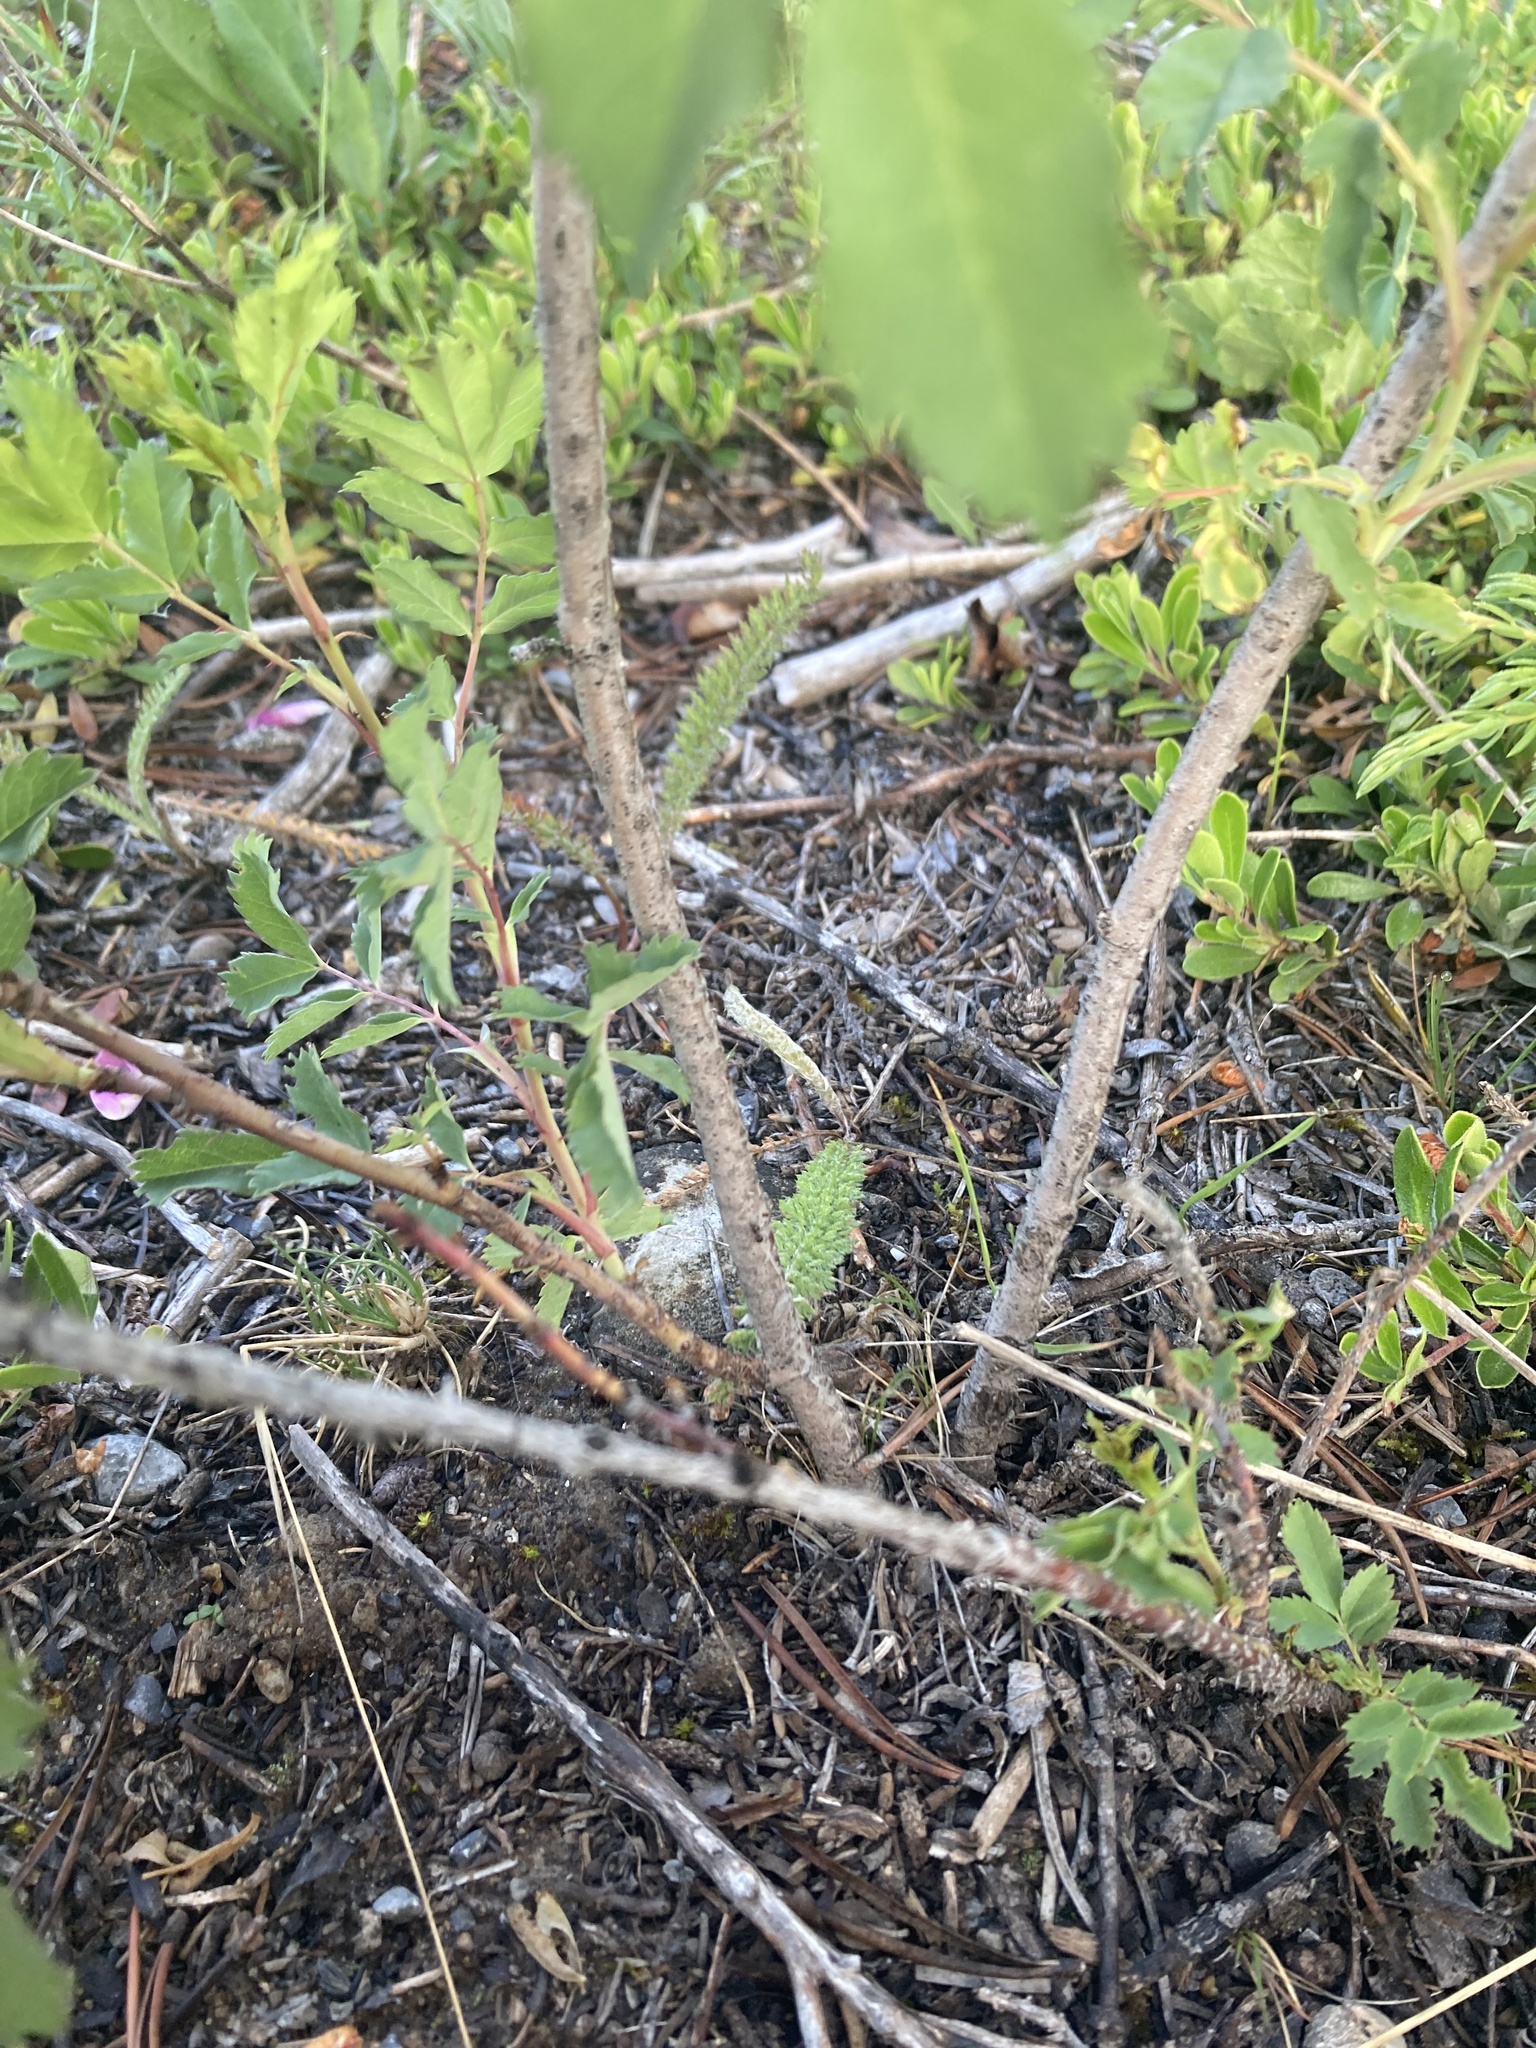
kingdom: Plantae
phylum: Tracheophyta
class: Magnoliopsida
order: Rosales
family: Rosaceae
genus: Rosa
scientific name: Rosa woodsii
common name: Woods's rose
